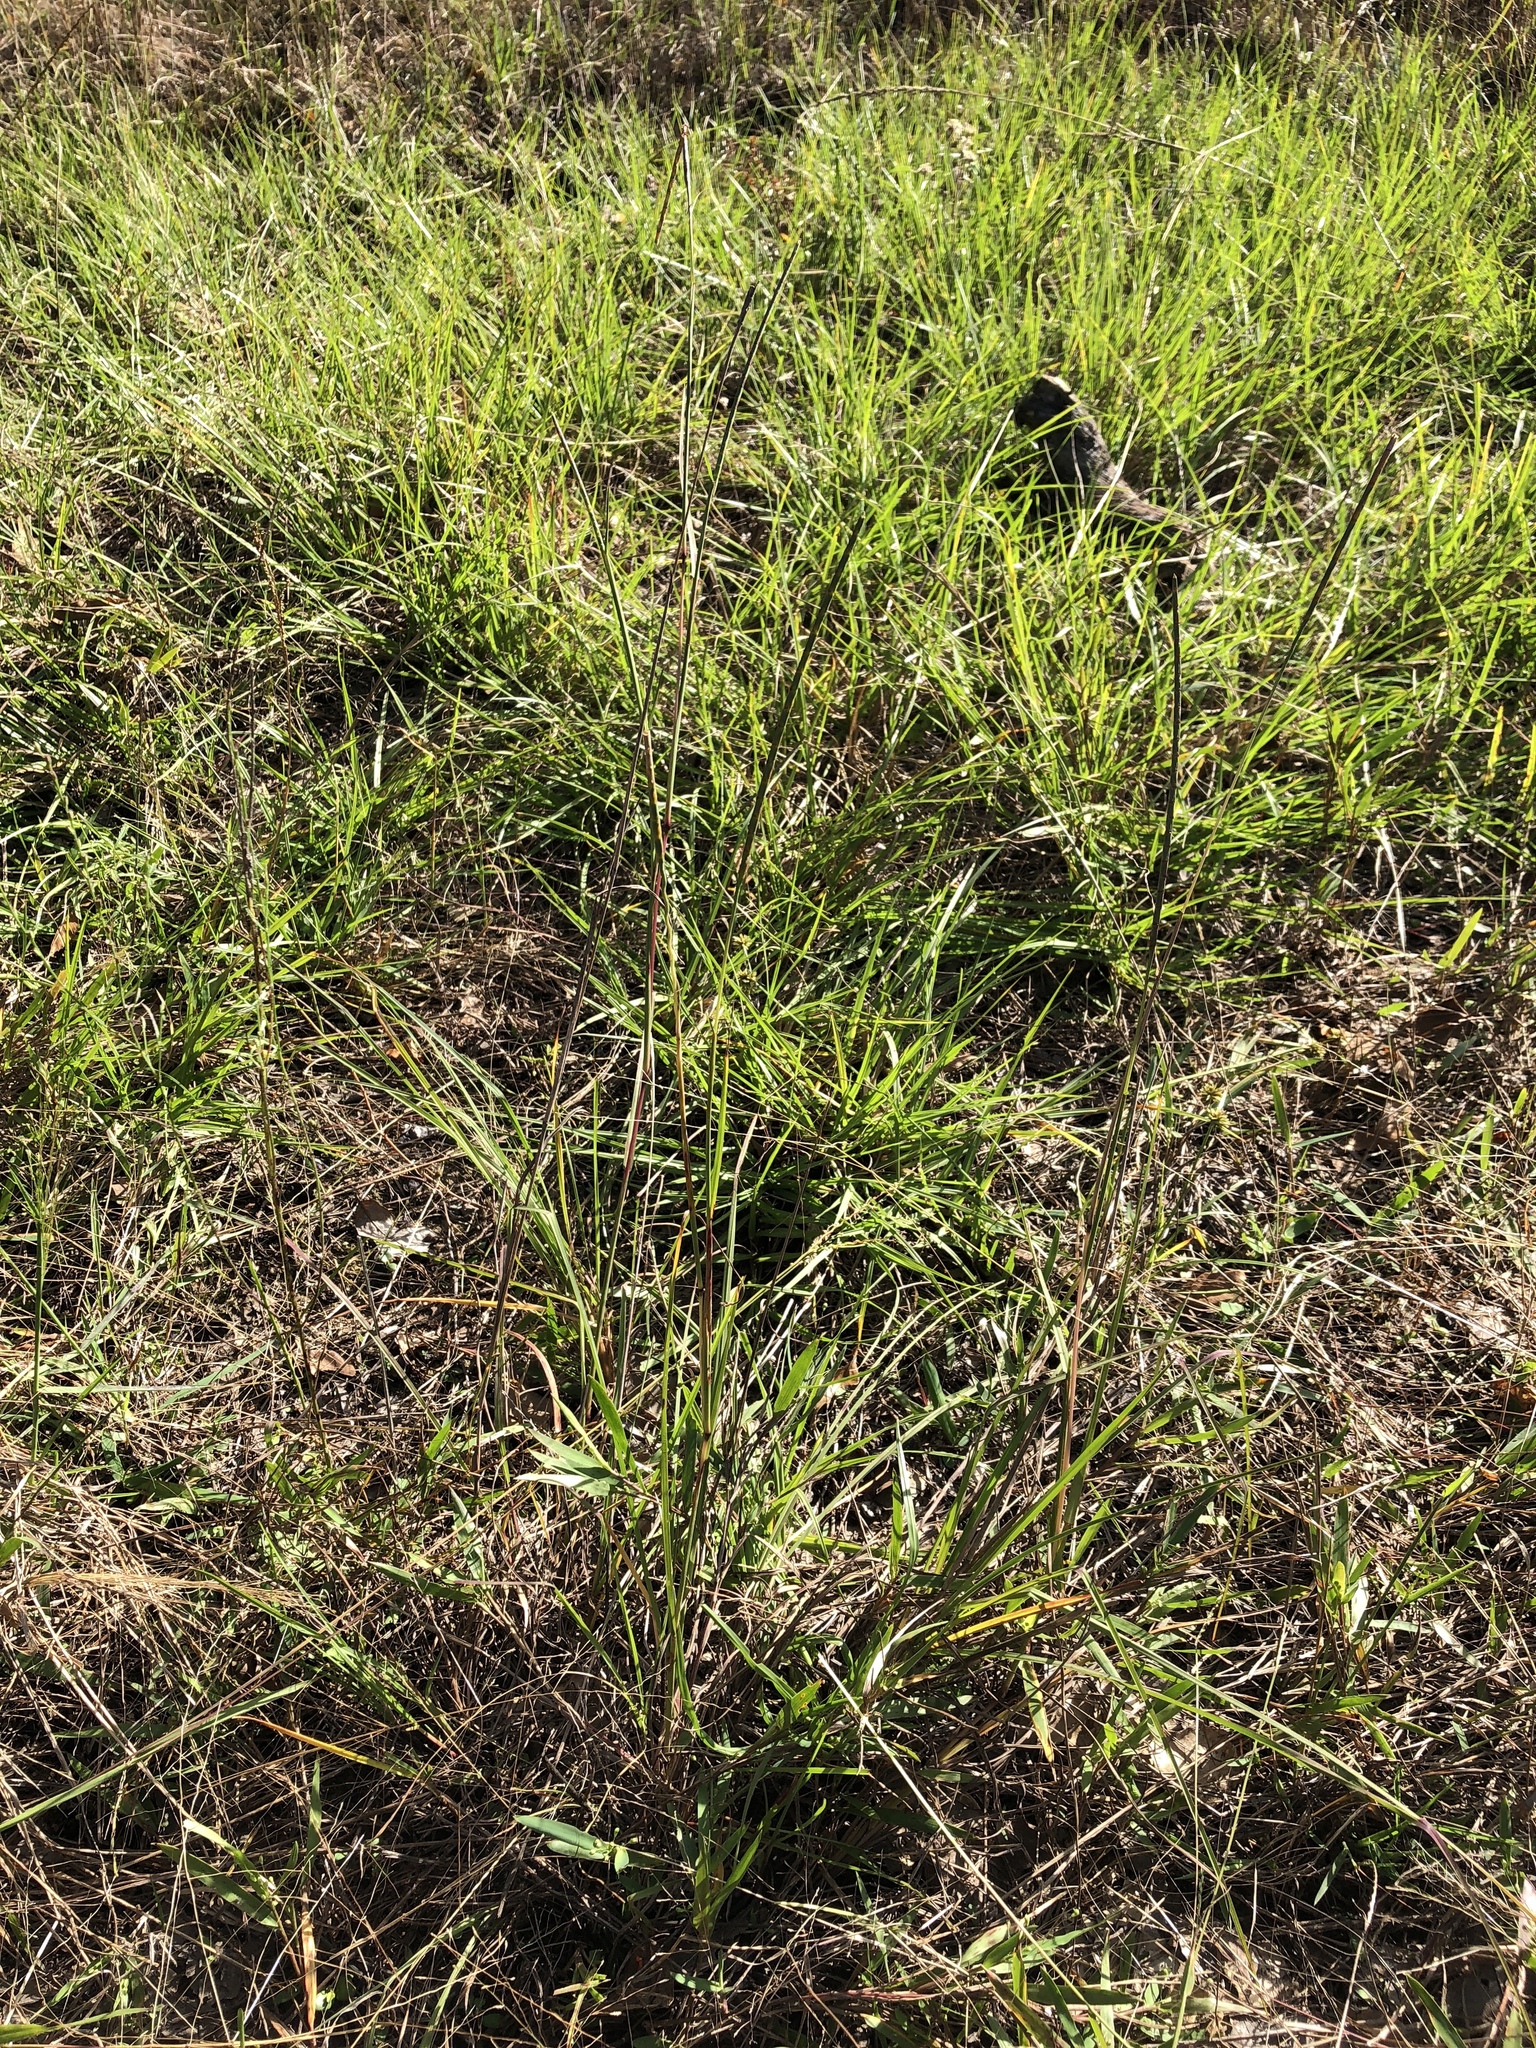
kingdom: Plantae
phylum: Tracheophyta
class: Liliopsida
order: Poales
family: Poaceae
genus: Rottboellia
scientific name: Rottboellia campestris
